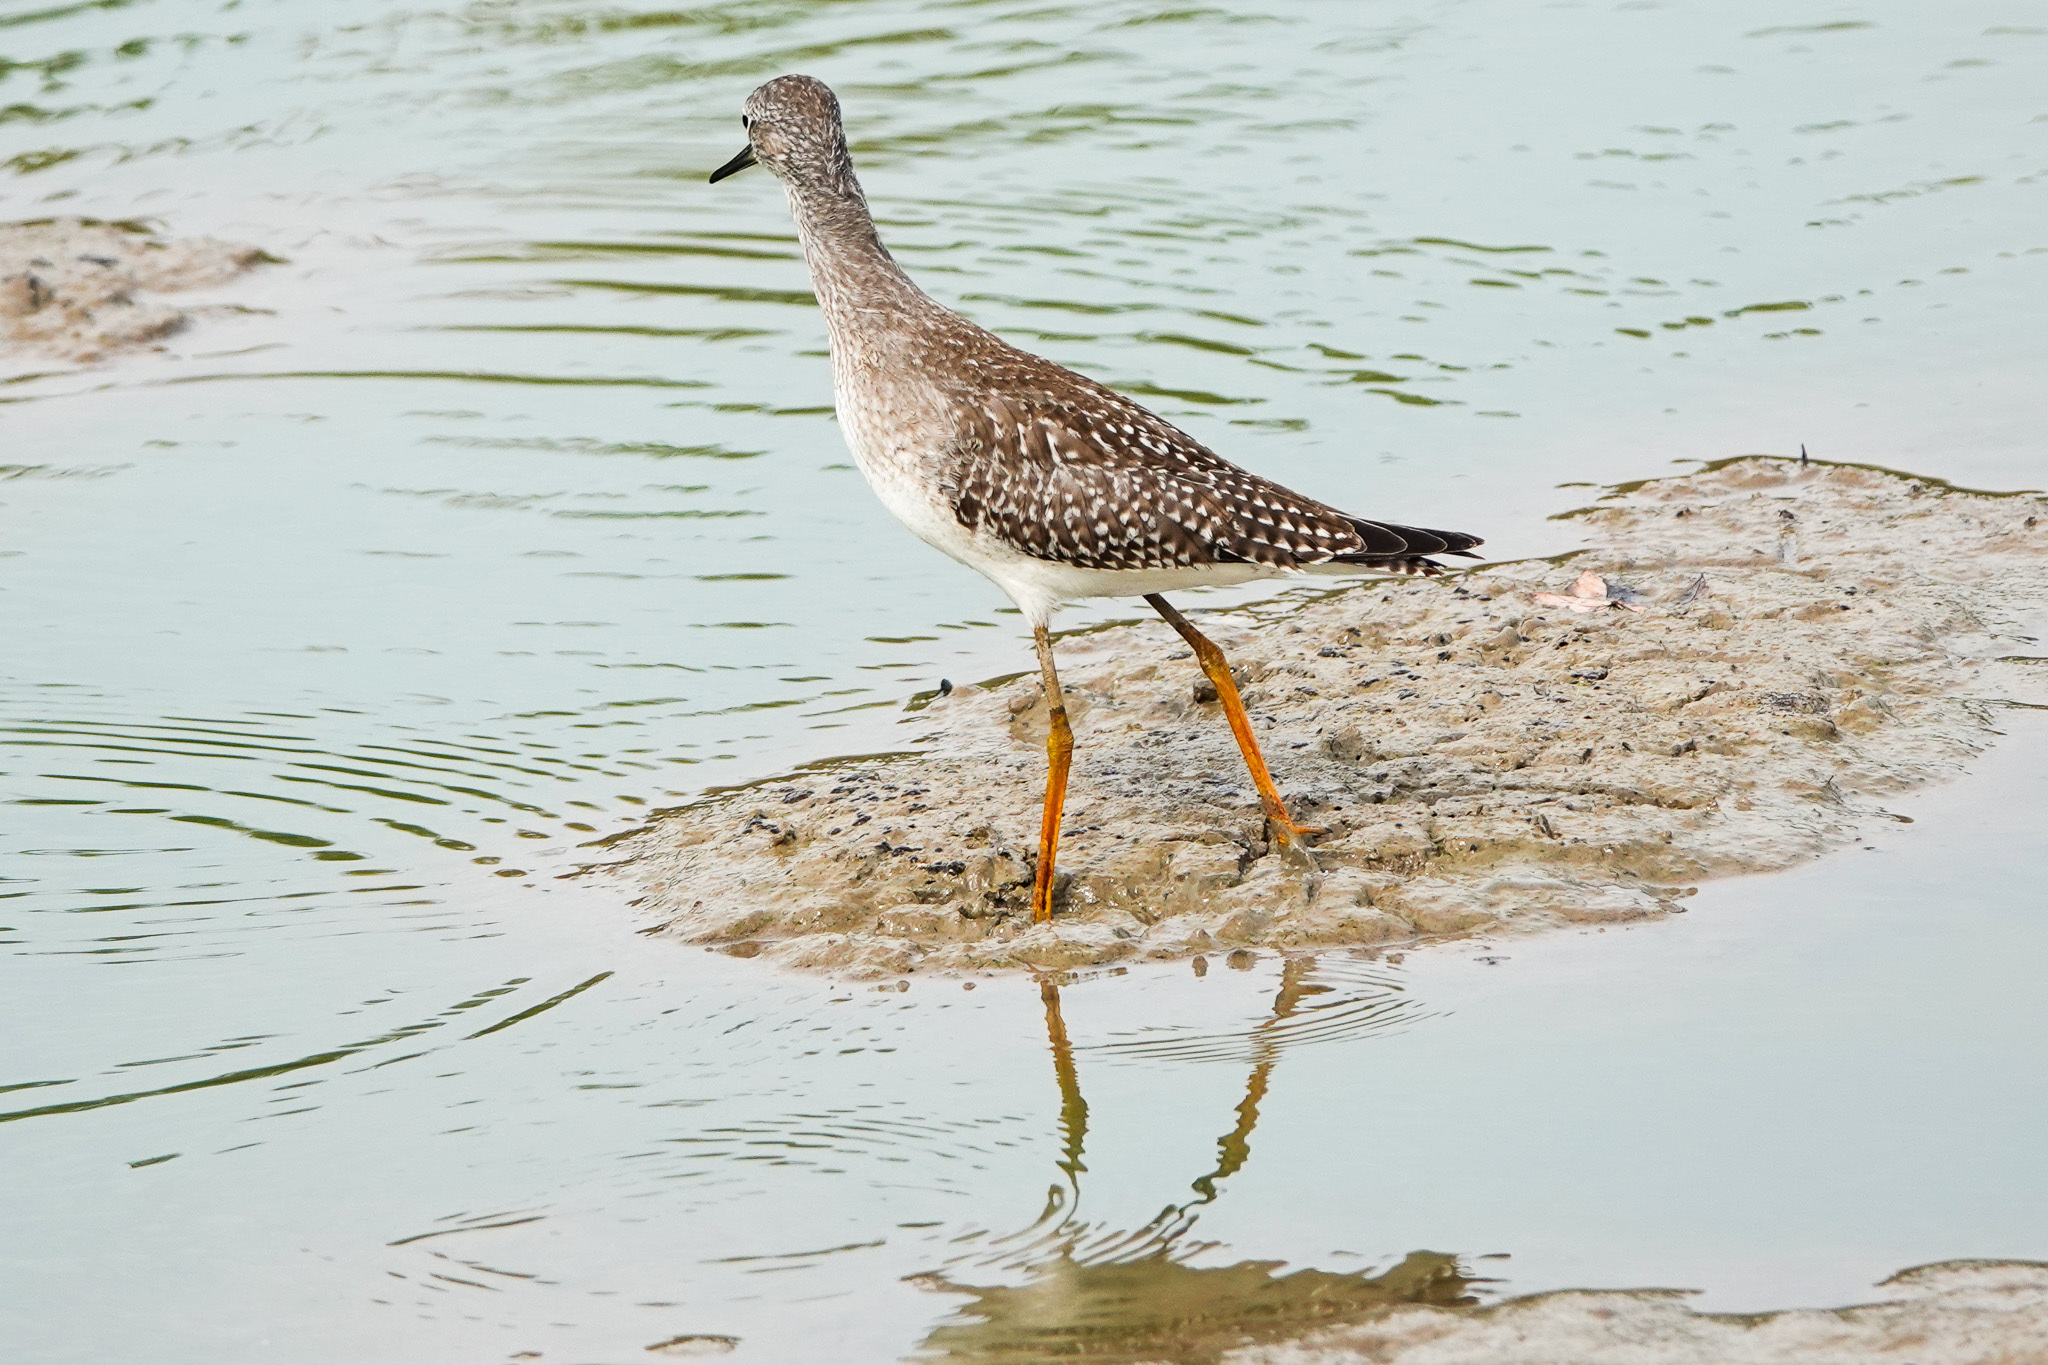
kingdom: Animalia
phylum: Chordata
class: Aves
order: Charadriiformes
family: Scolopacidae
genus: Tringa
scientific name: Tringa flavipes
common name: Lesser yellowlegs
